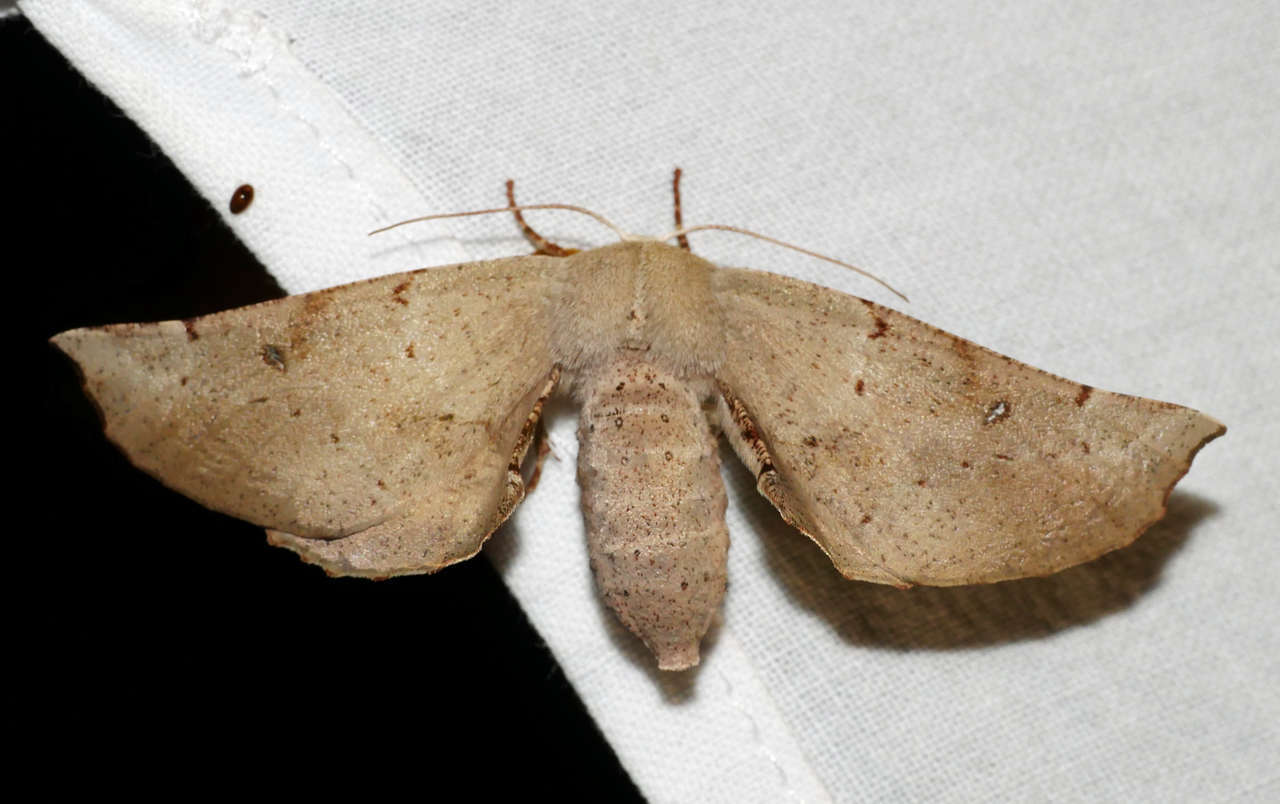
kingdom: Animalia
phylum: Arthropoda
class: Insecta
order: Lepidoptera
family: Geometridae
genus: Circopetes
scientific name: Circopetes obtusata
